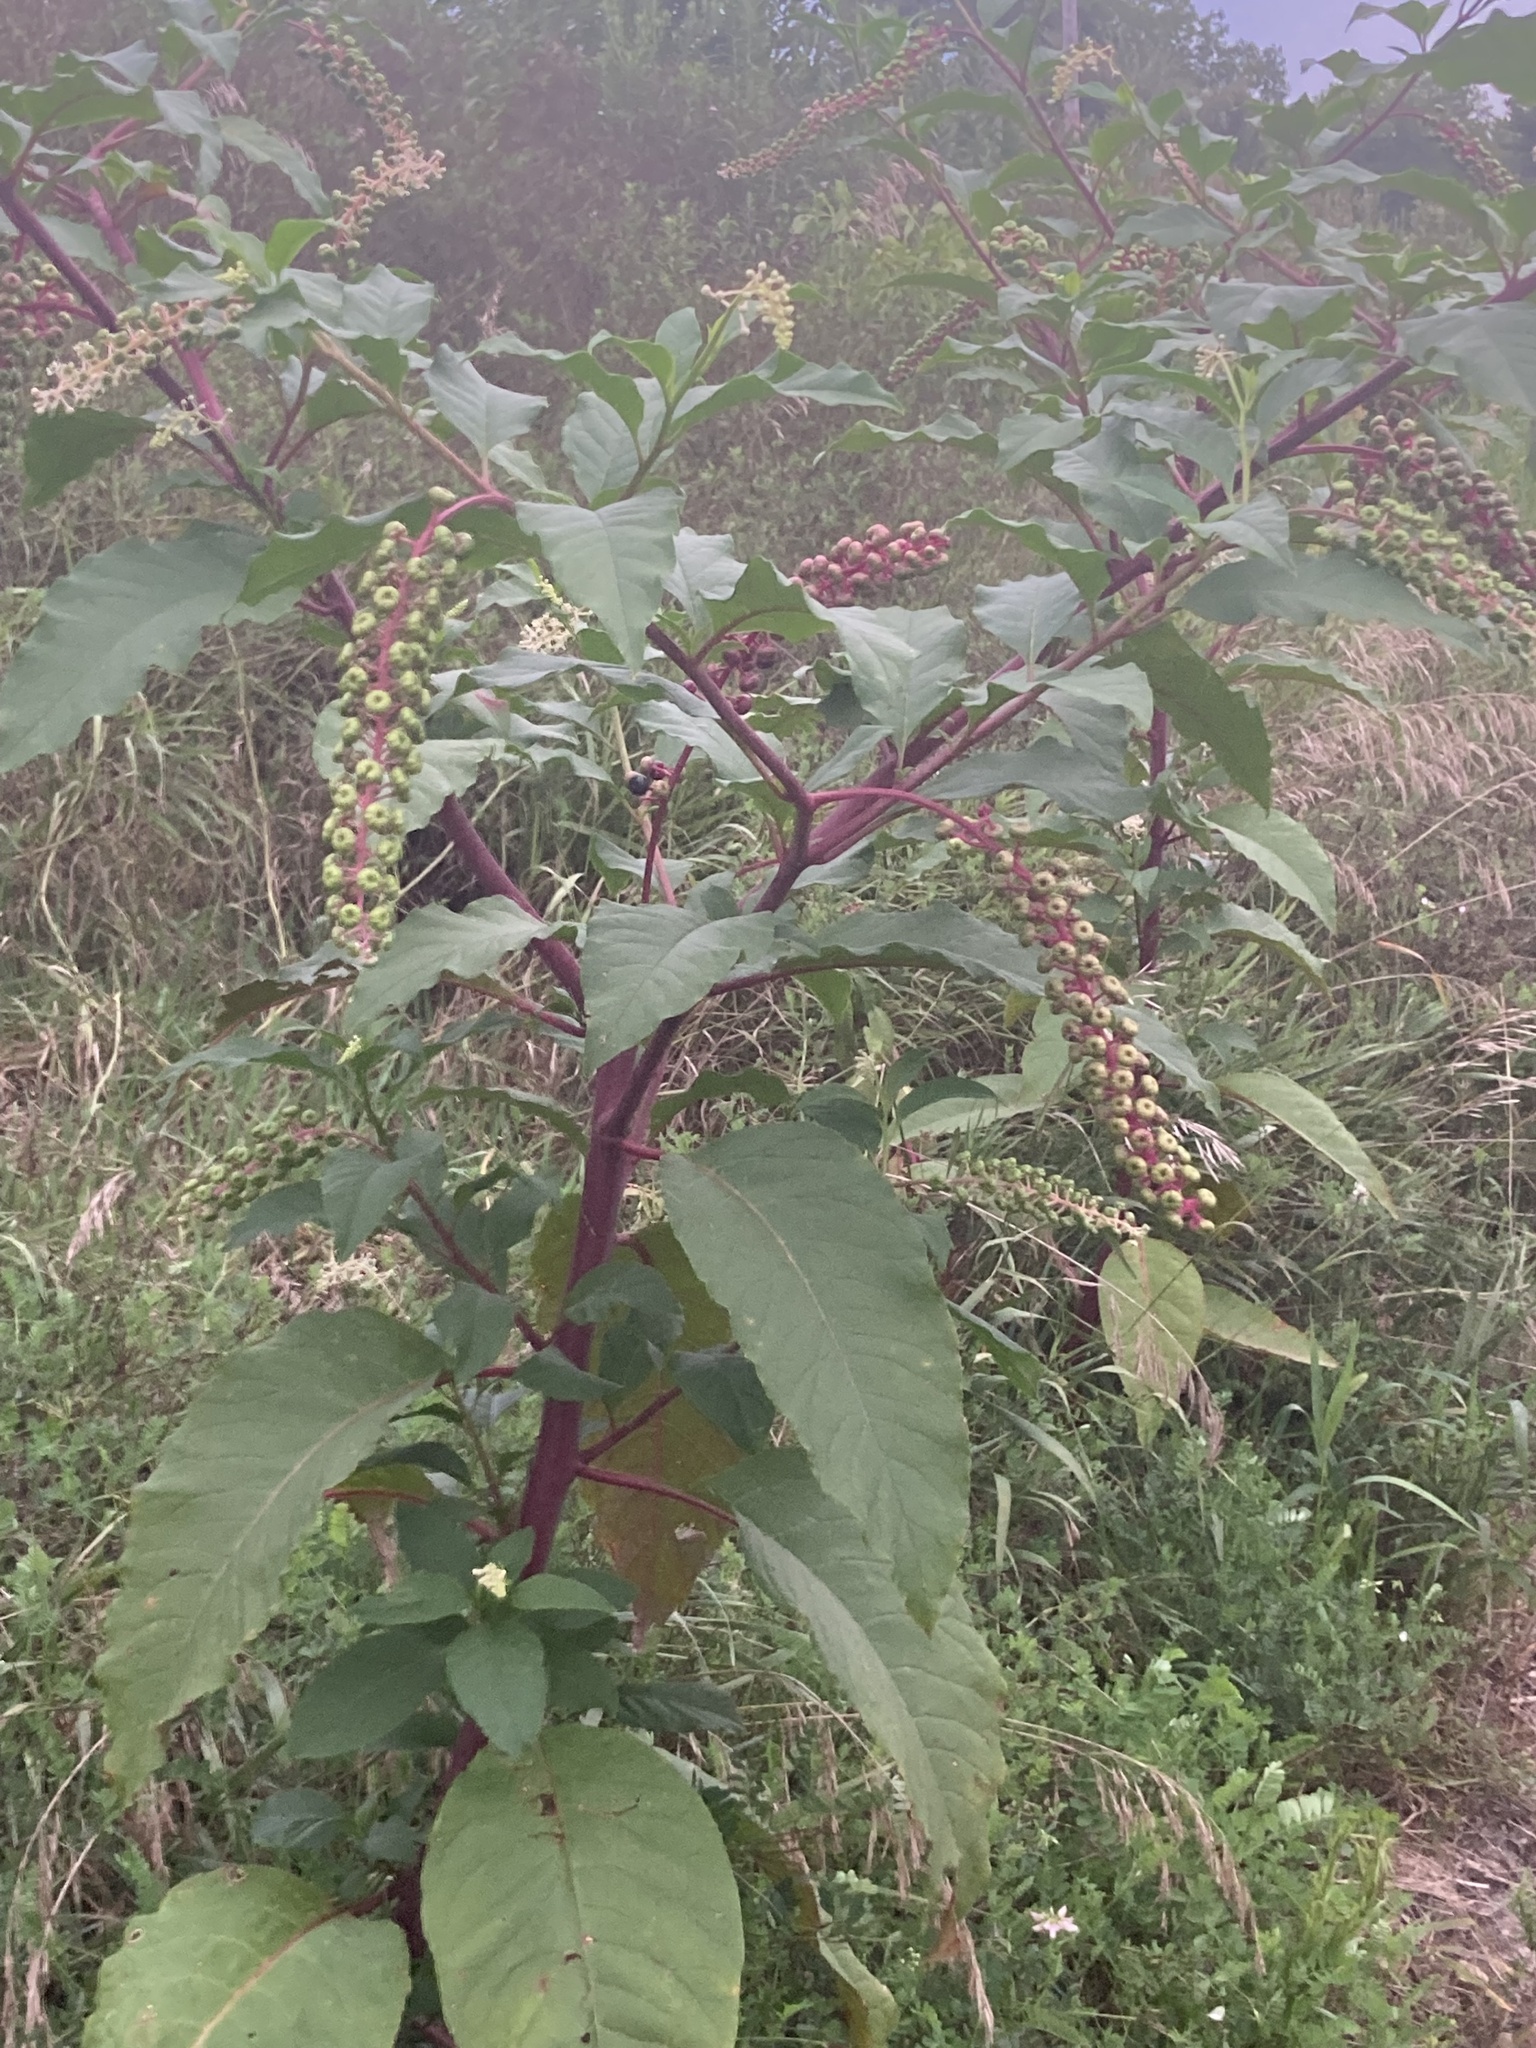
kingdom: Plantae
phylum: Tracheophyta
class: Magnoliopsida
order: Caryophyllales
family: Phytolaccaceae
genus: Phytolacca
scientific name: Phytolacca americana
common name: American pokeweed
